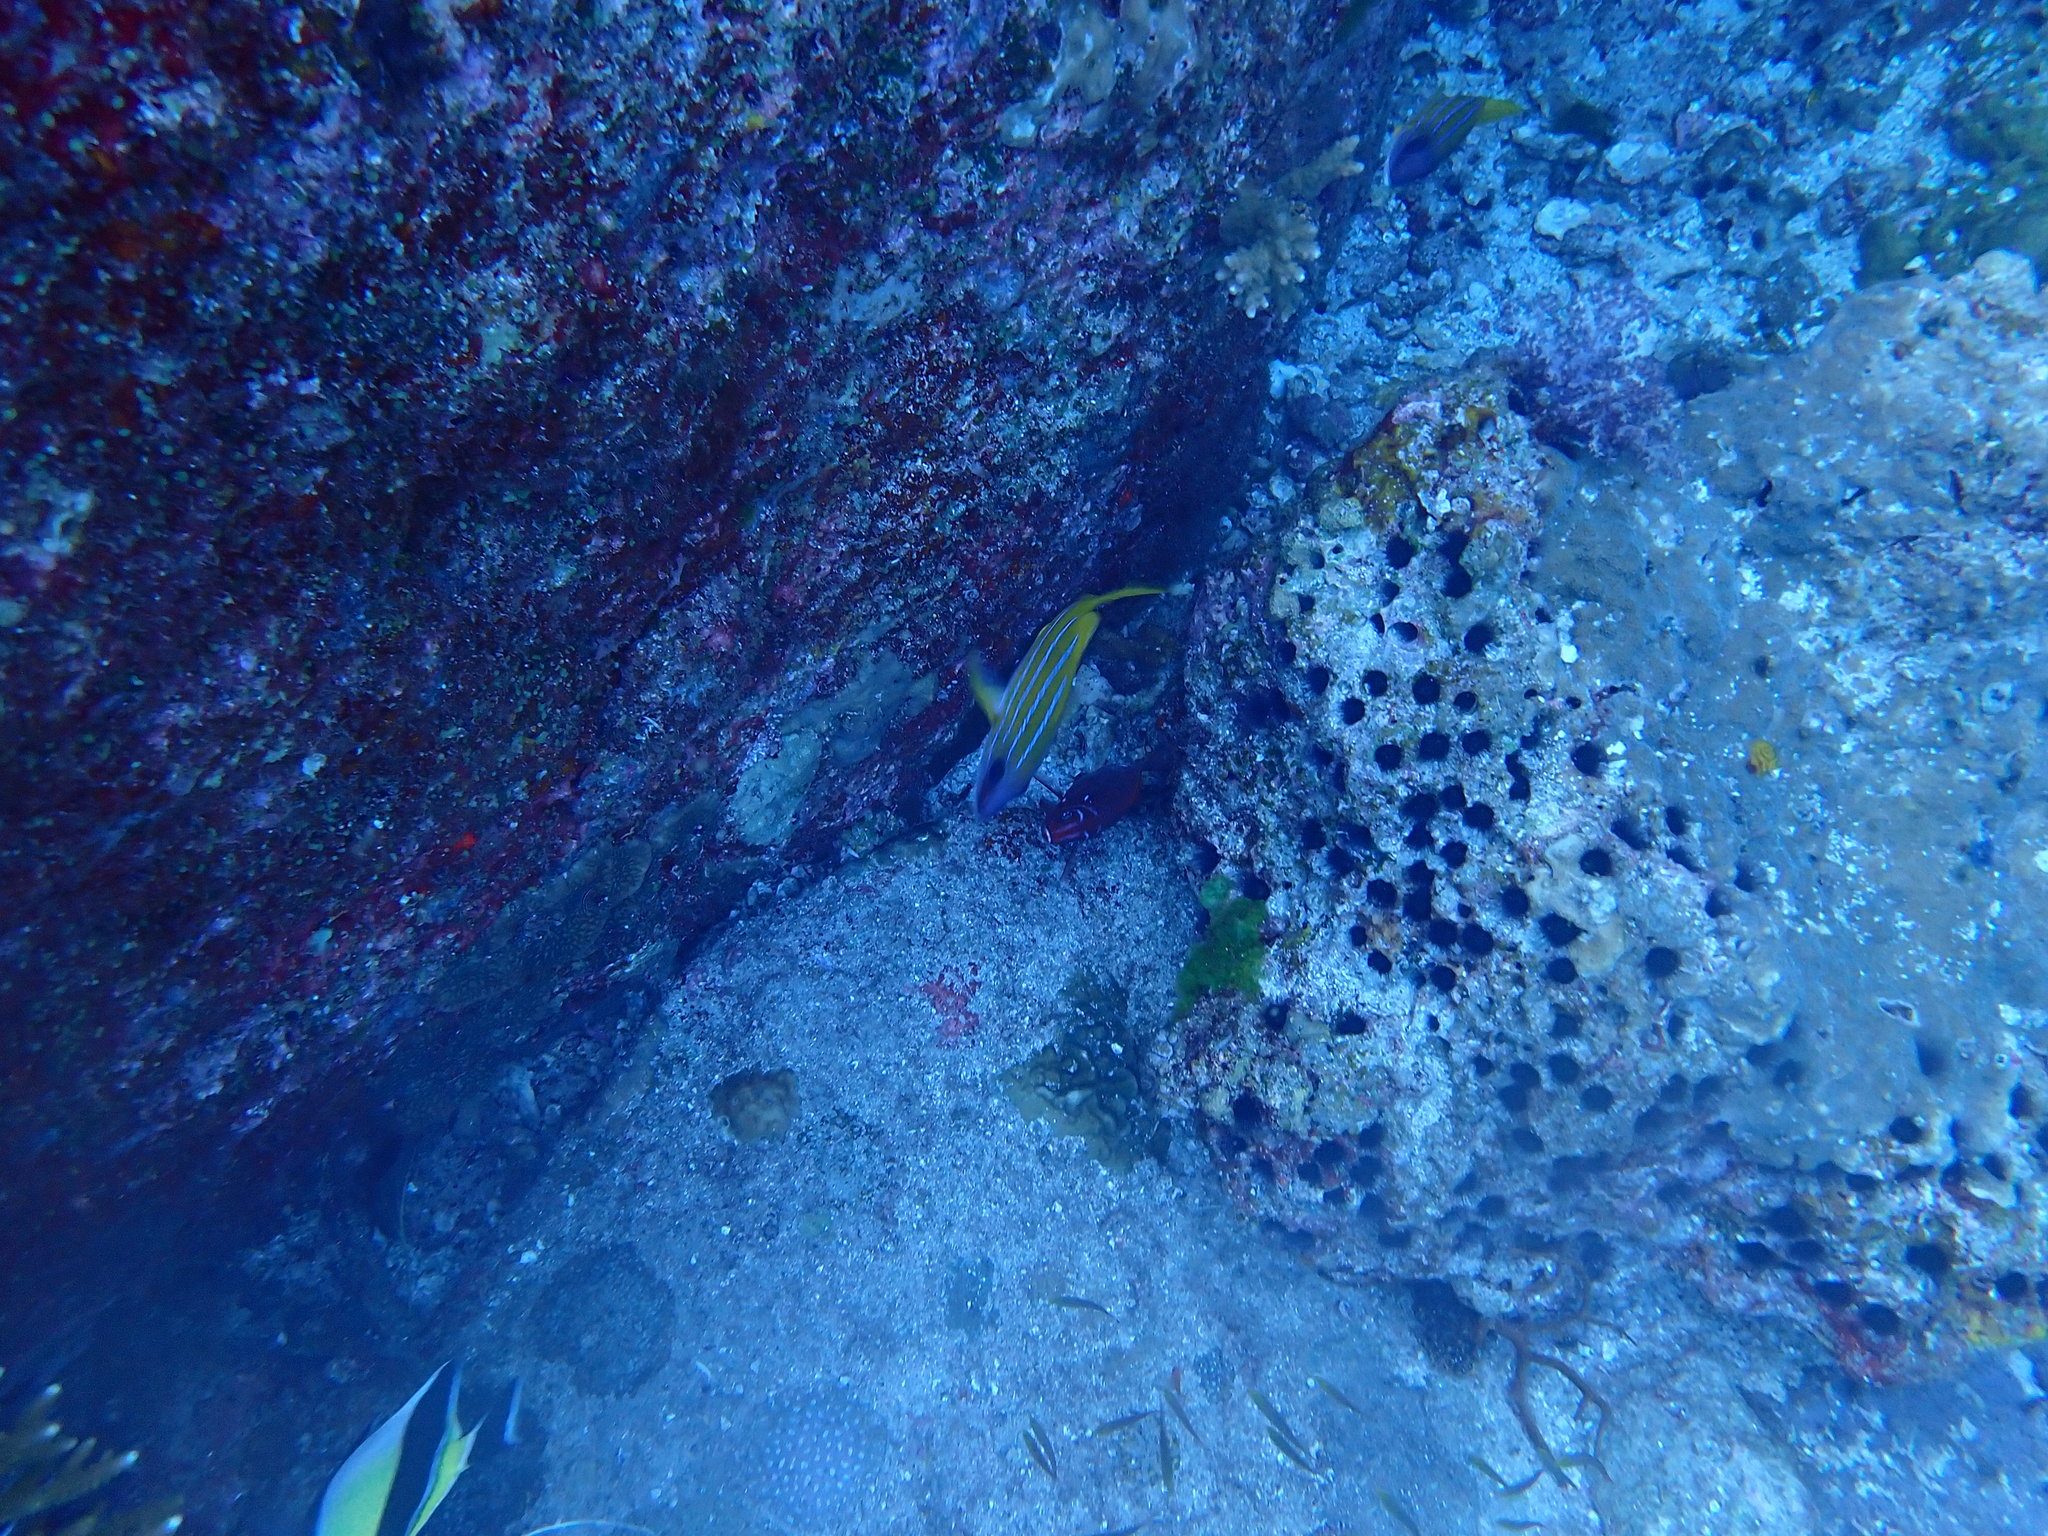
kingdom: Animalia
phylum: Chordata
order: Perciformes
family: Lutjanidae
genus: Lutjanus
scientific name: Lutjanus quinquelineatus
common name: Five-lined snapper
